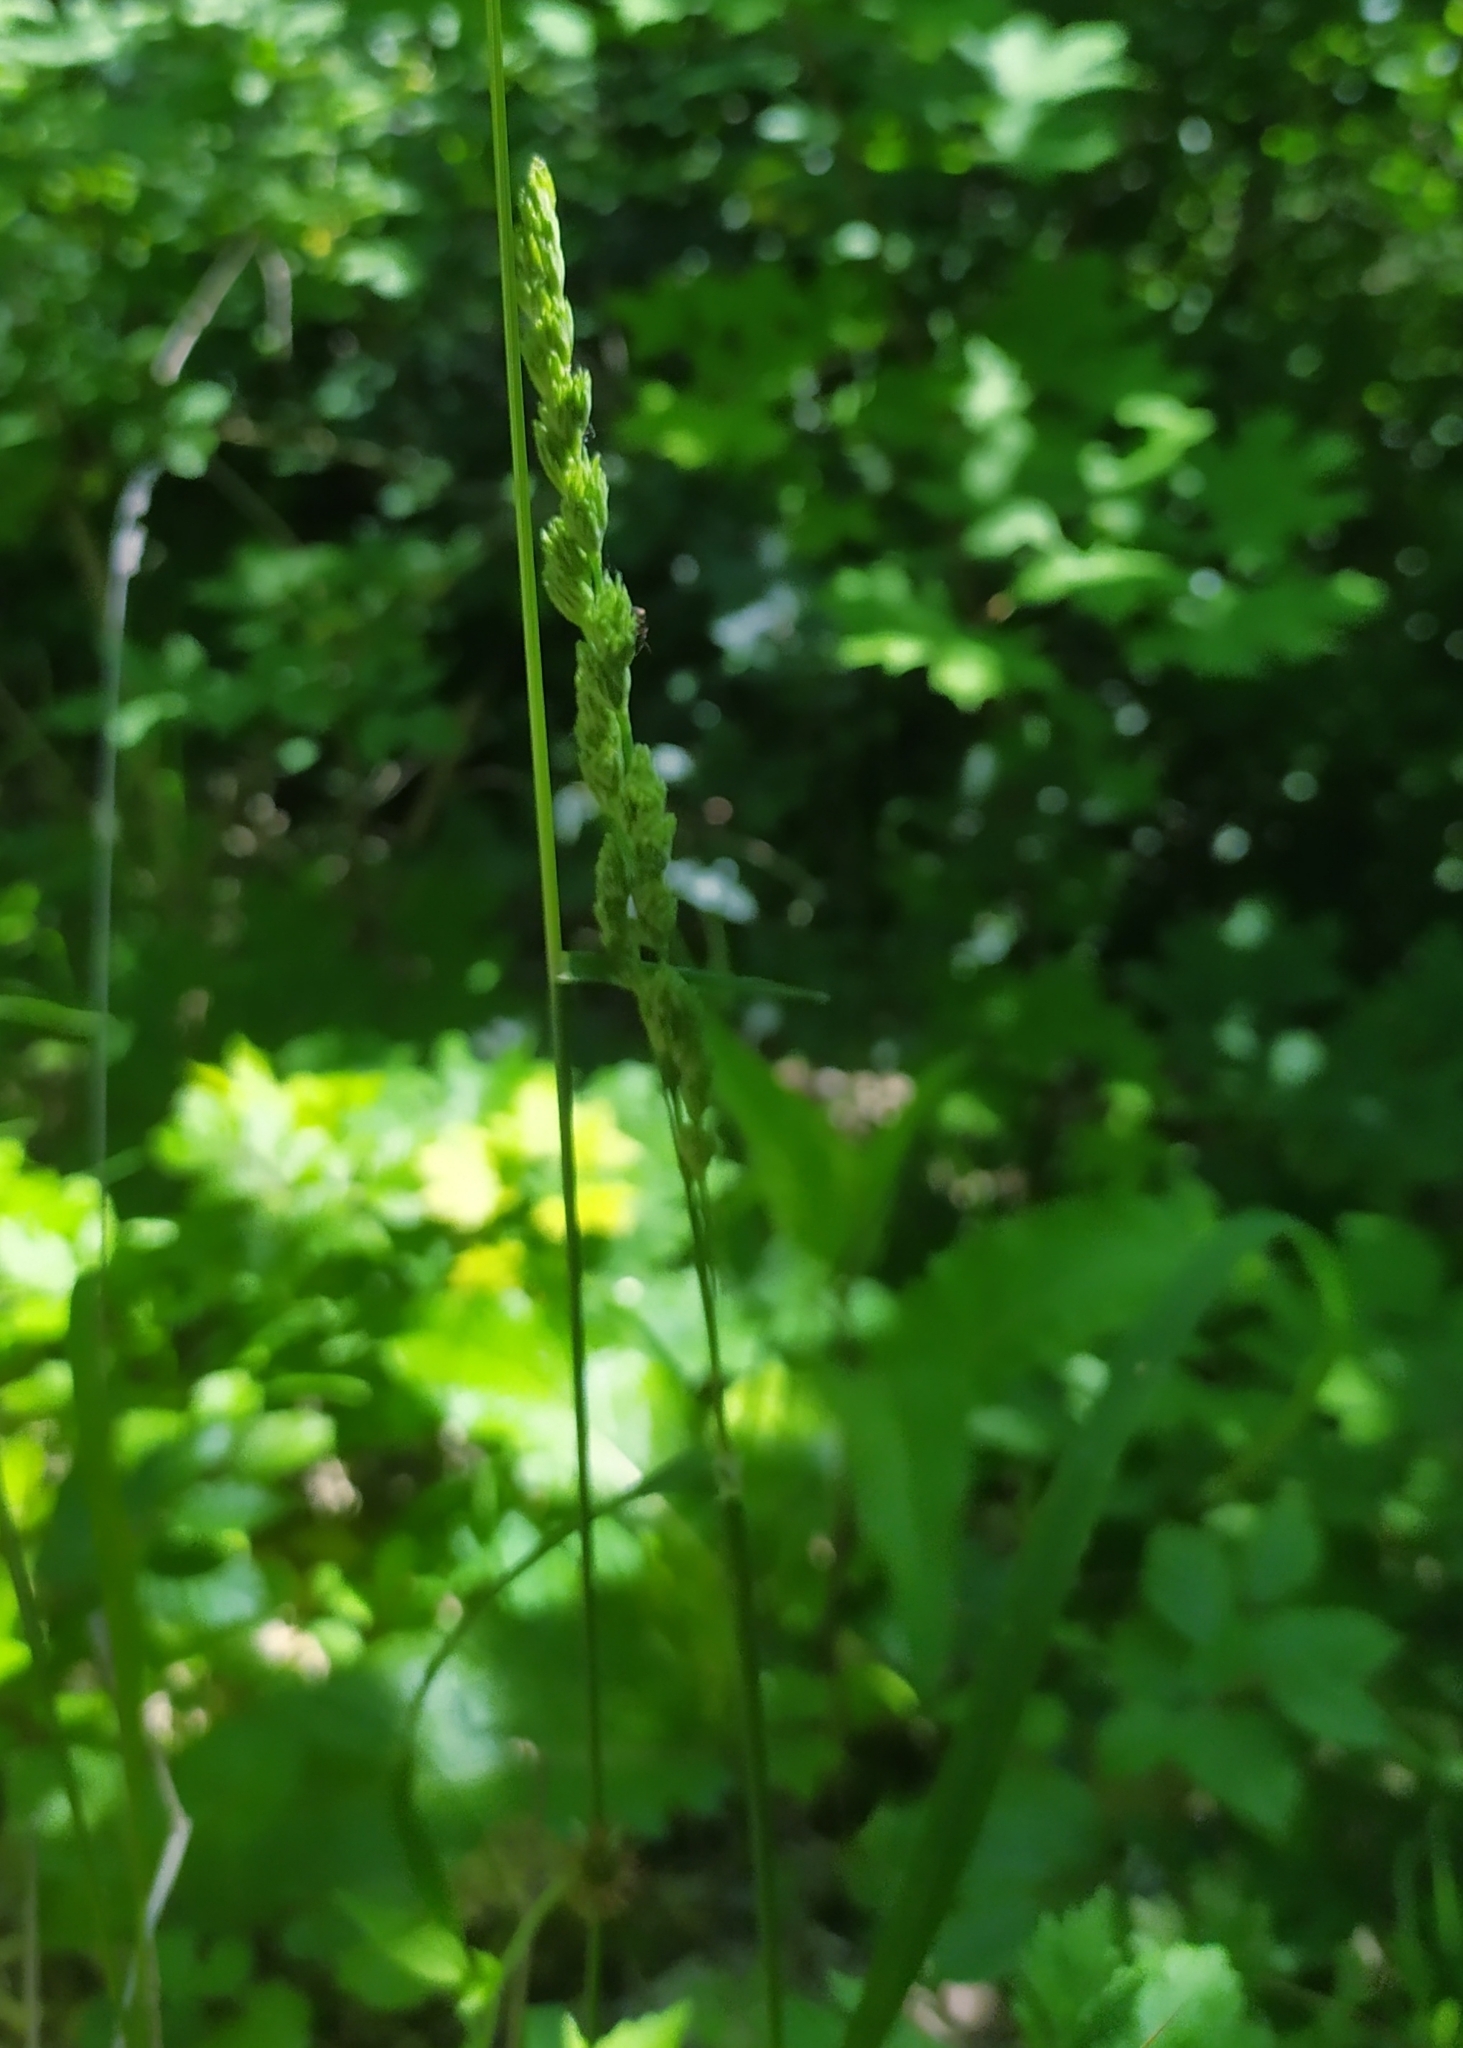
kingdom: Plantae
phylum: Tracheophyta
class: Liliopsida
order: Poales
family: Poaceae
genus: Dactylis
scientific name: Dactylis glomerata
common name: Orchardgrass
